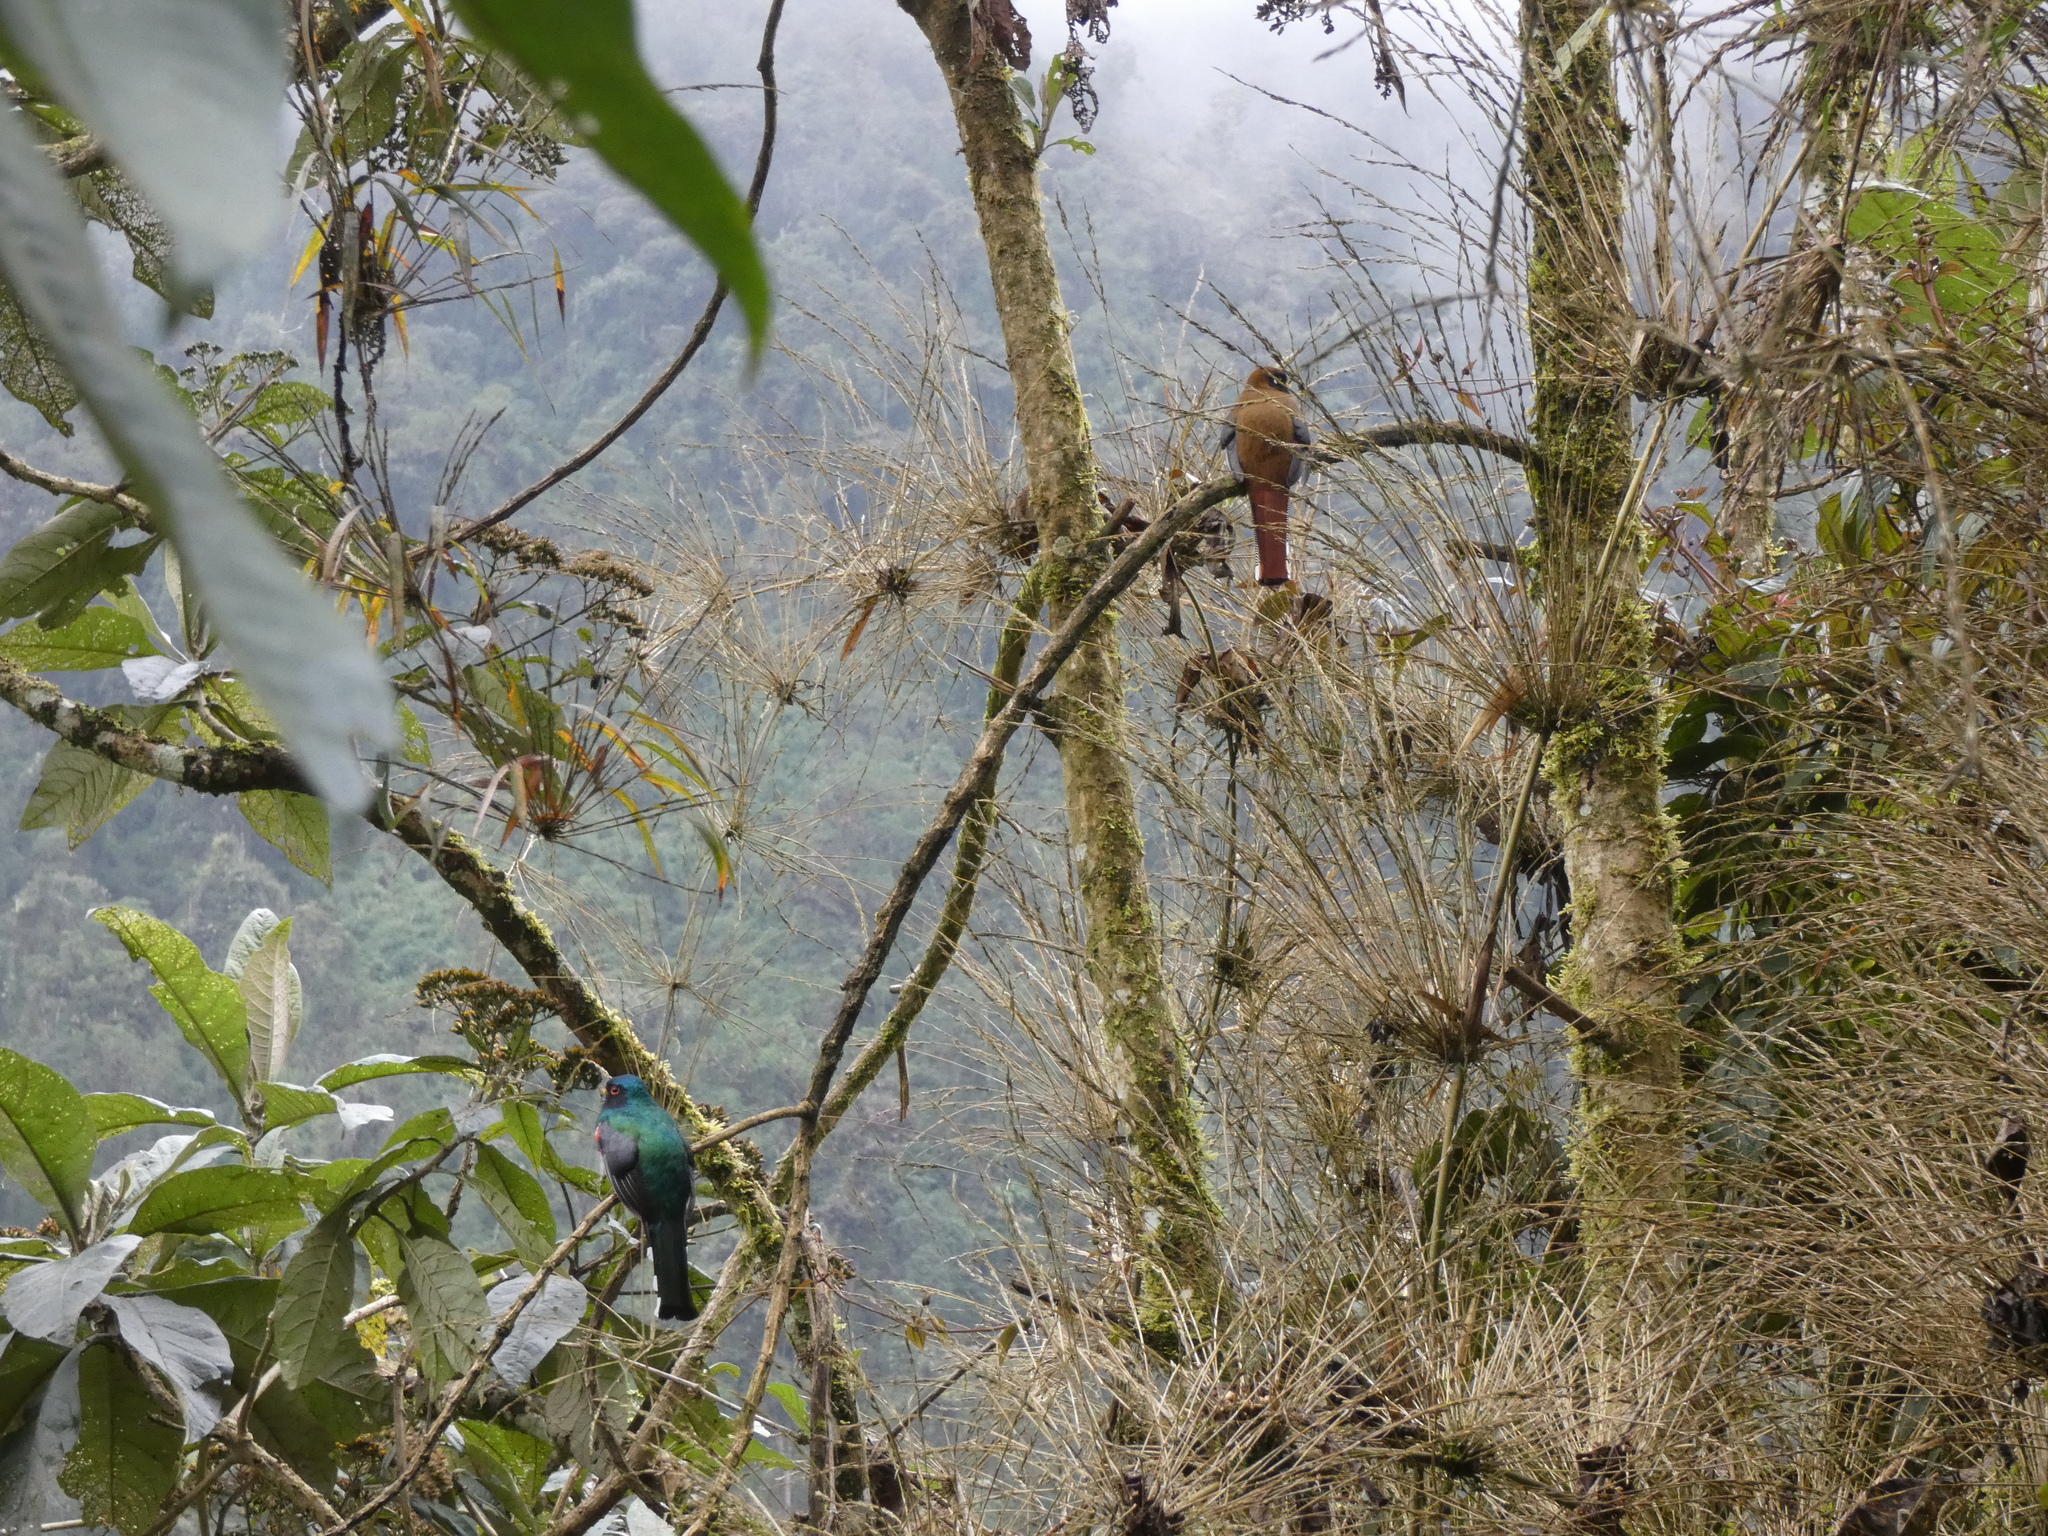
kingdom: Animalia
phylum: Chordata
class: Aves
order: Trogoniformes
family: Trogonidae
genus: Trogon
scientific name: Trogon personatus
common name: Masked trogon
